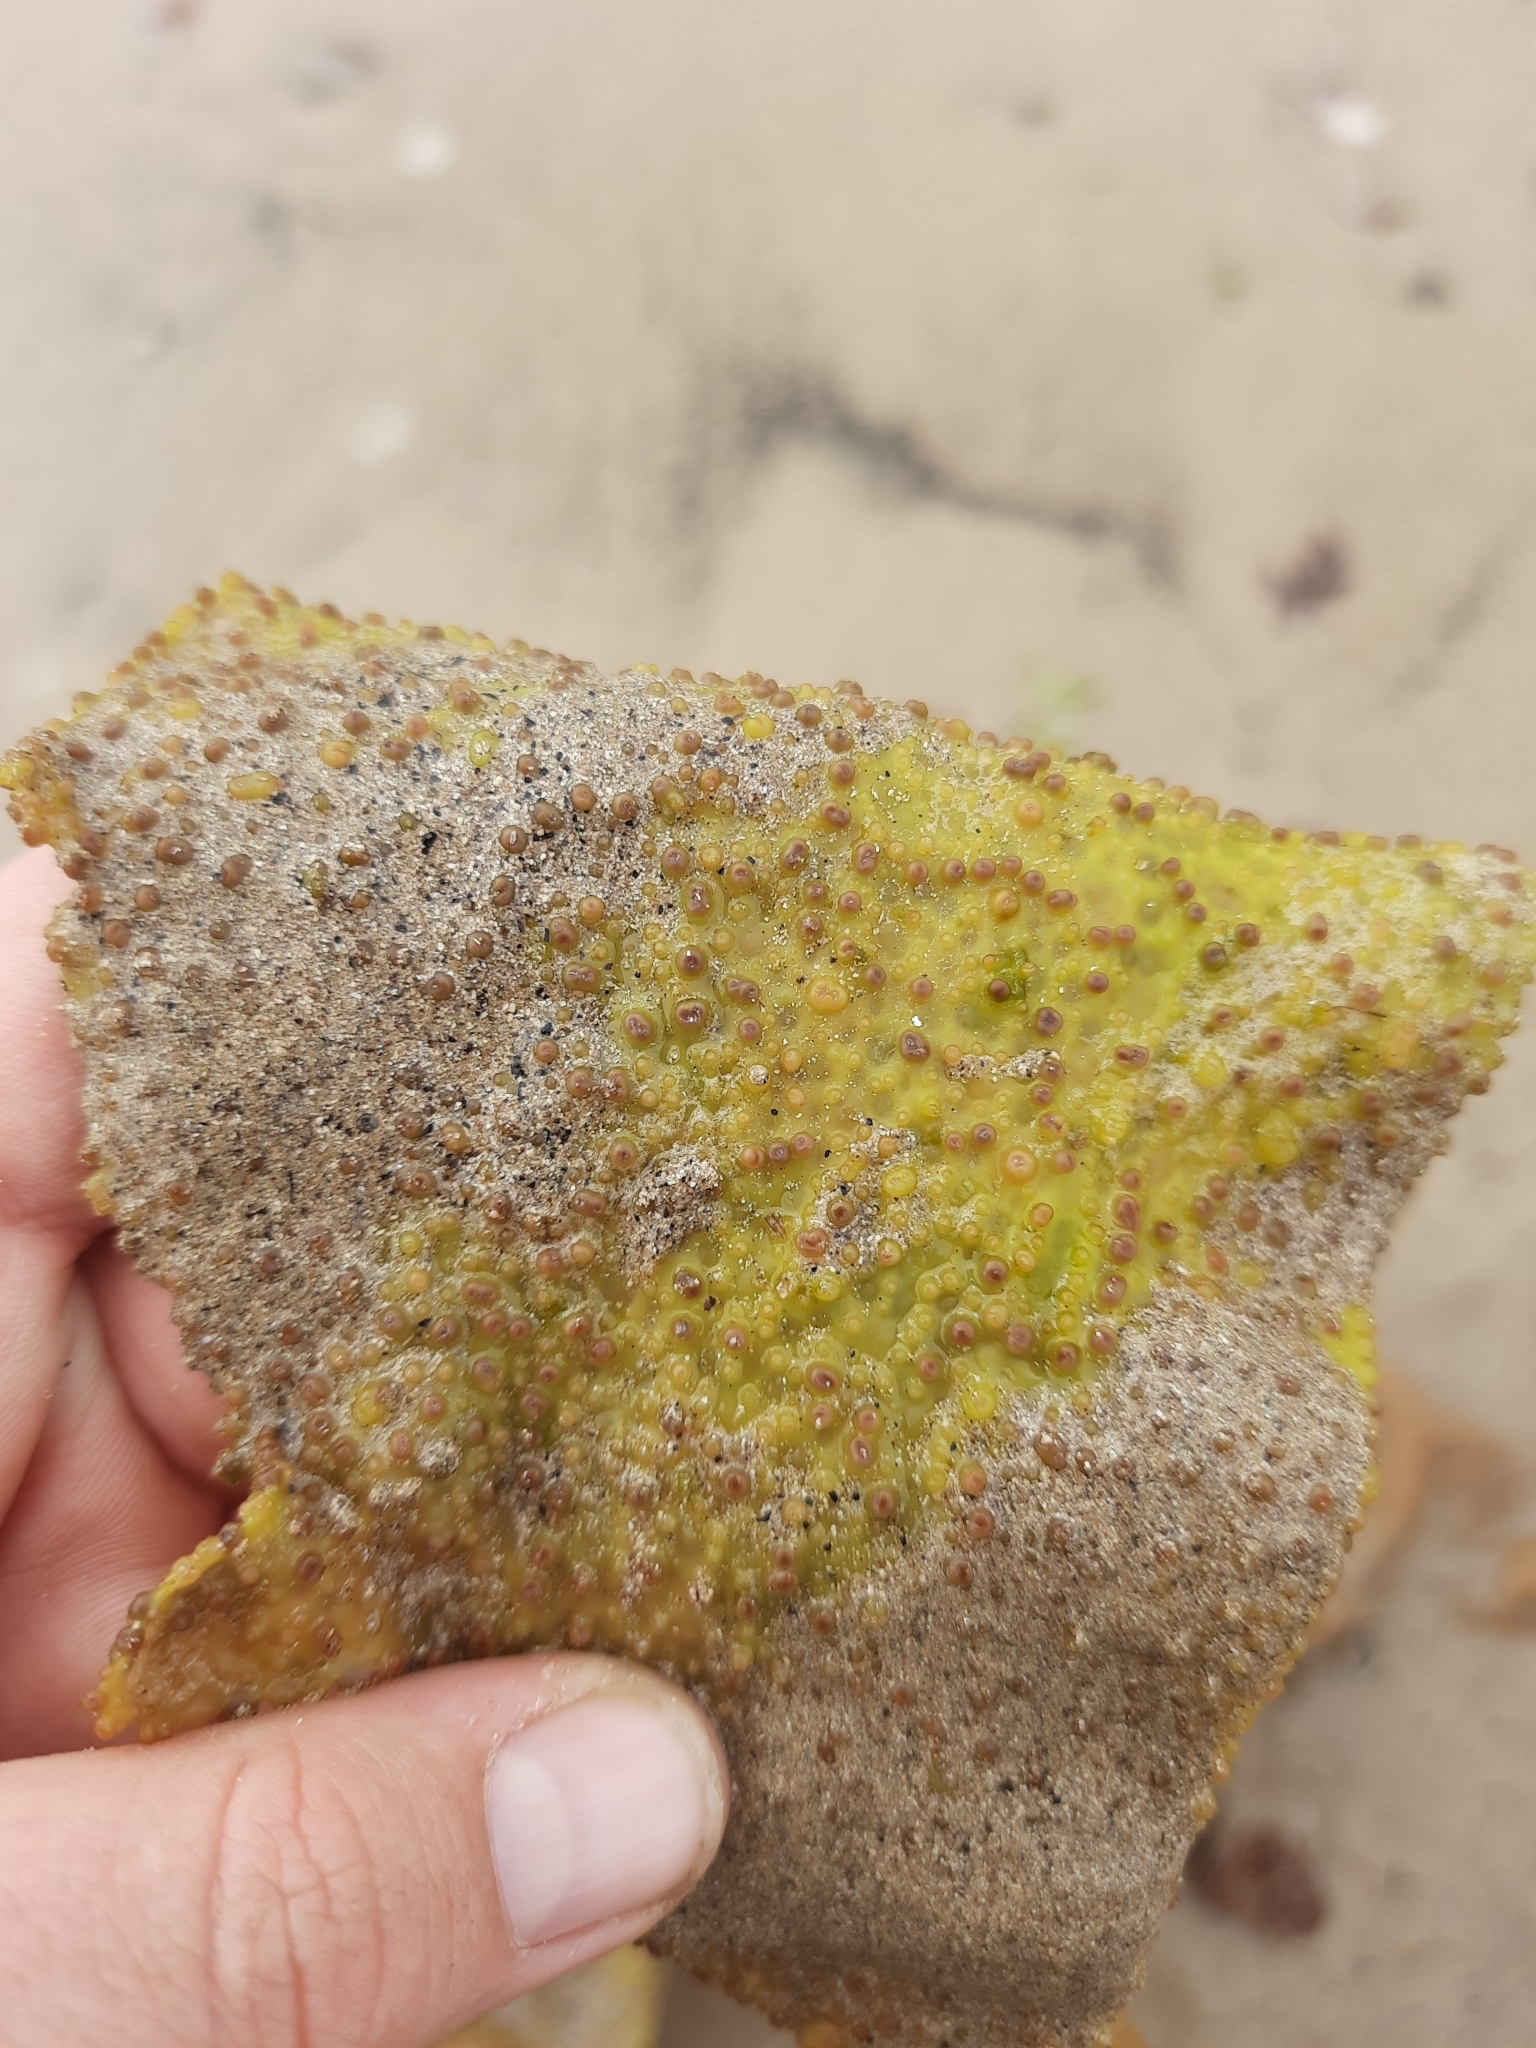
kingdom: Plantae
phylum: Rhodophyta
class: Florideophyceae
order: Gigartinales
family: Gigartinaceae
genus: Sarcothalia
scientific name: Sarcothalia
